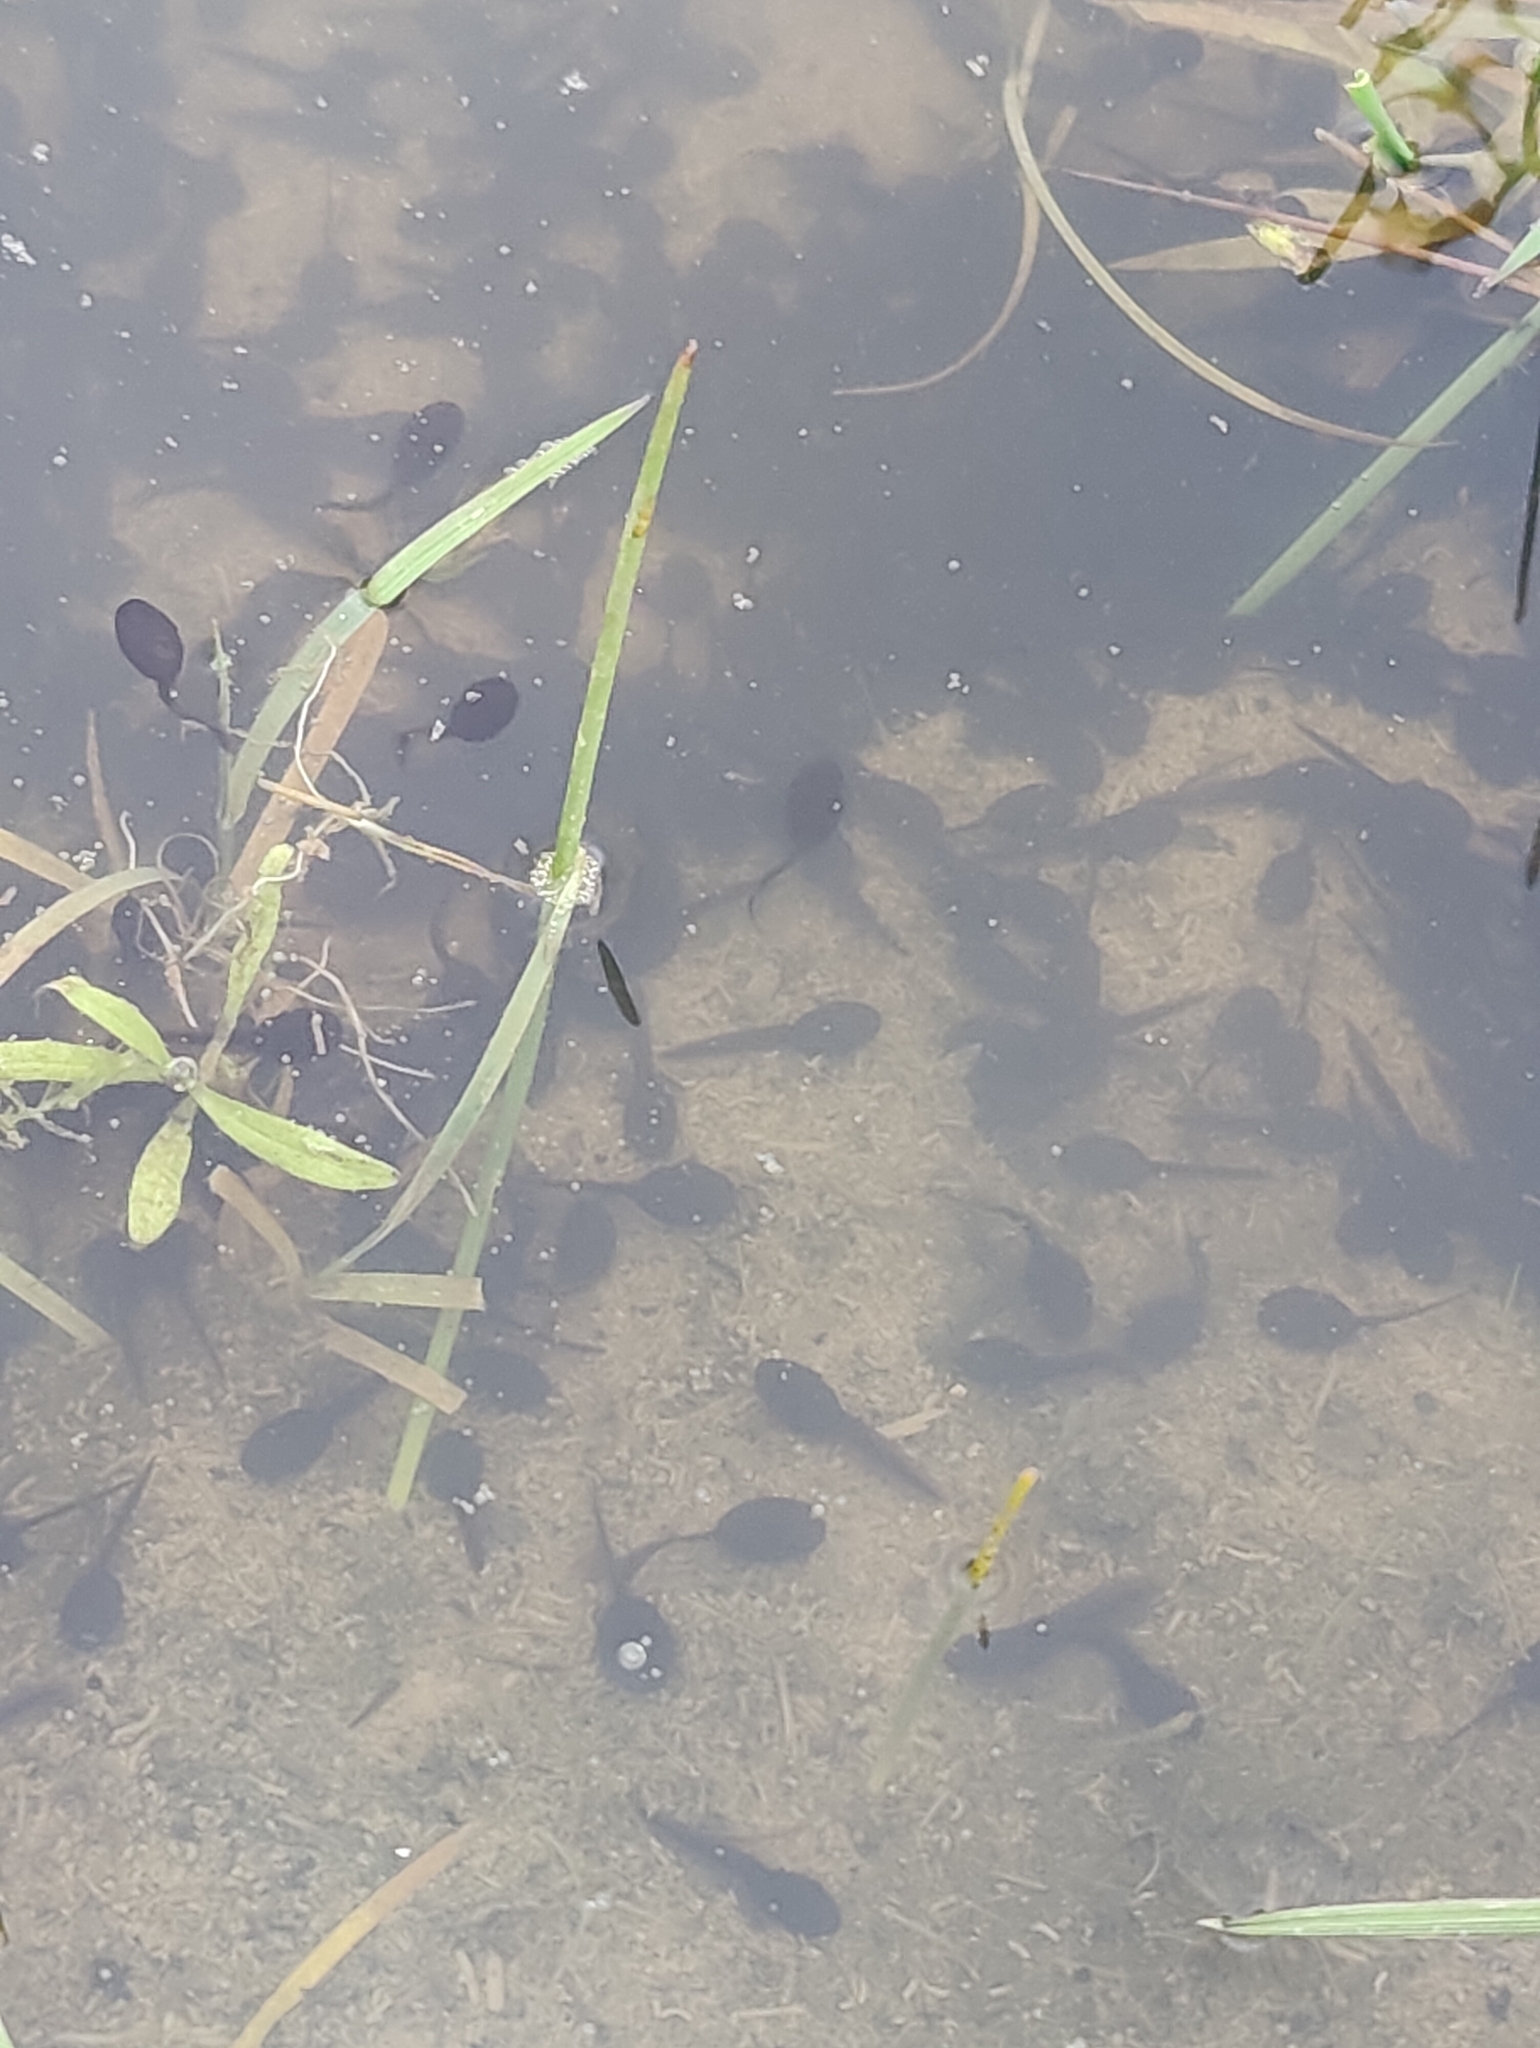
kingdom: Animalia
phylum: Chordata
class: Amphibia
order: Anura
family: Ranidae
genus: Rana
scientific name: Rana temporaria
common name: Common frog
